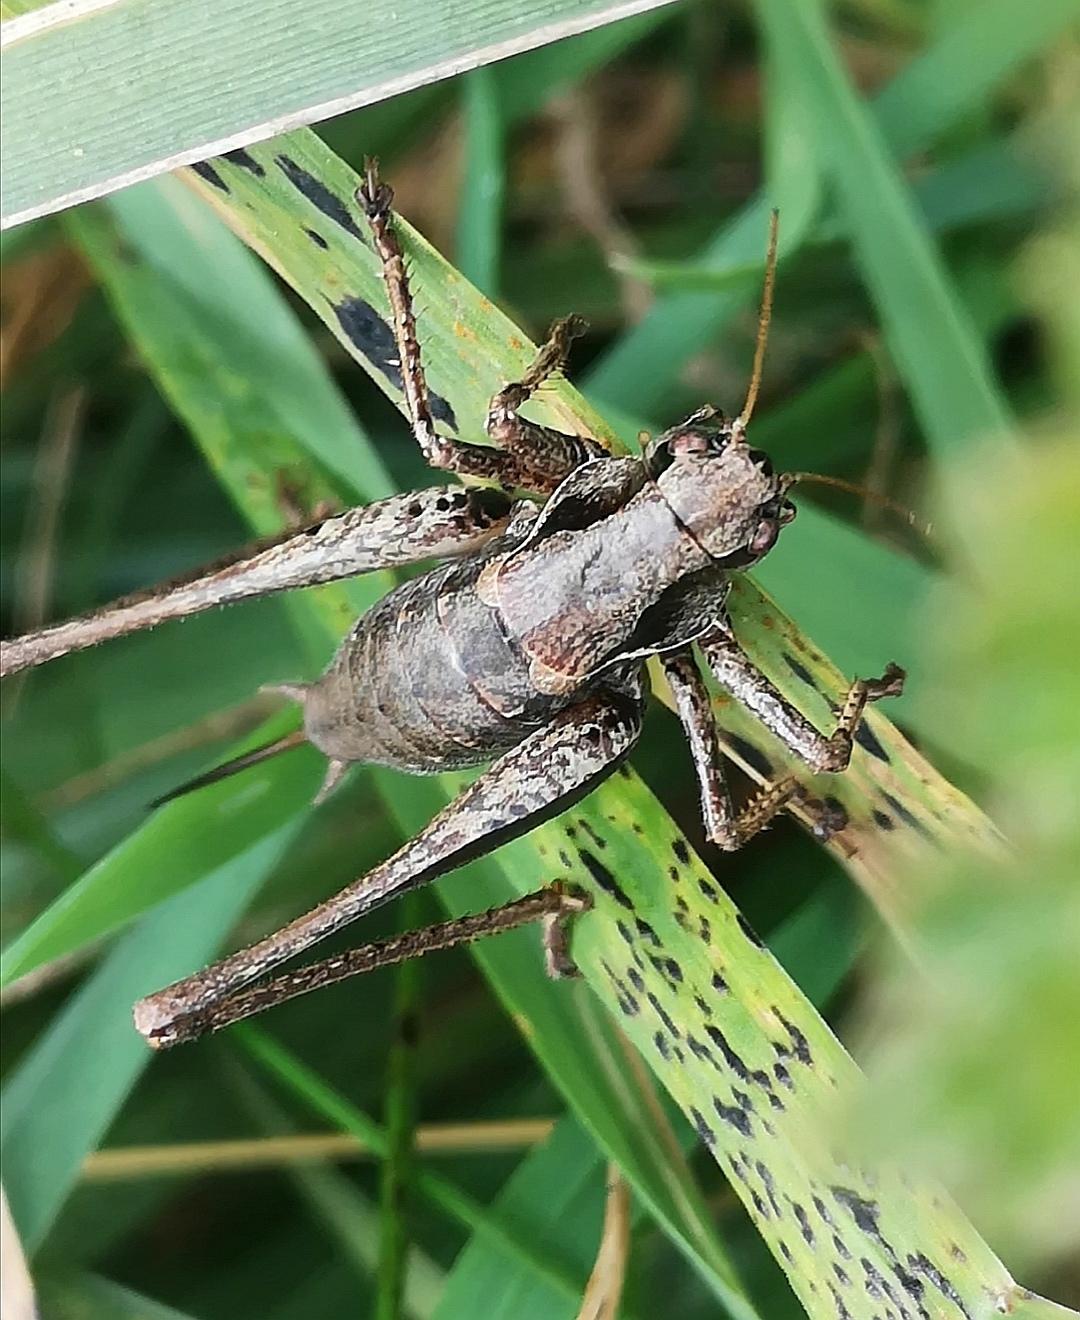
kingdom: Animalia
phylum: Arthropoda
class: Insecta
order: Orthoptera
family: Tettigoniidae
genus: Pholidoptera
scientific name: Pholidoptera griseoaptera
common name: Dark bush-cricket
